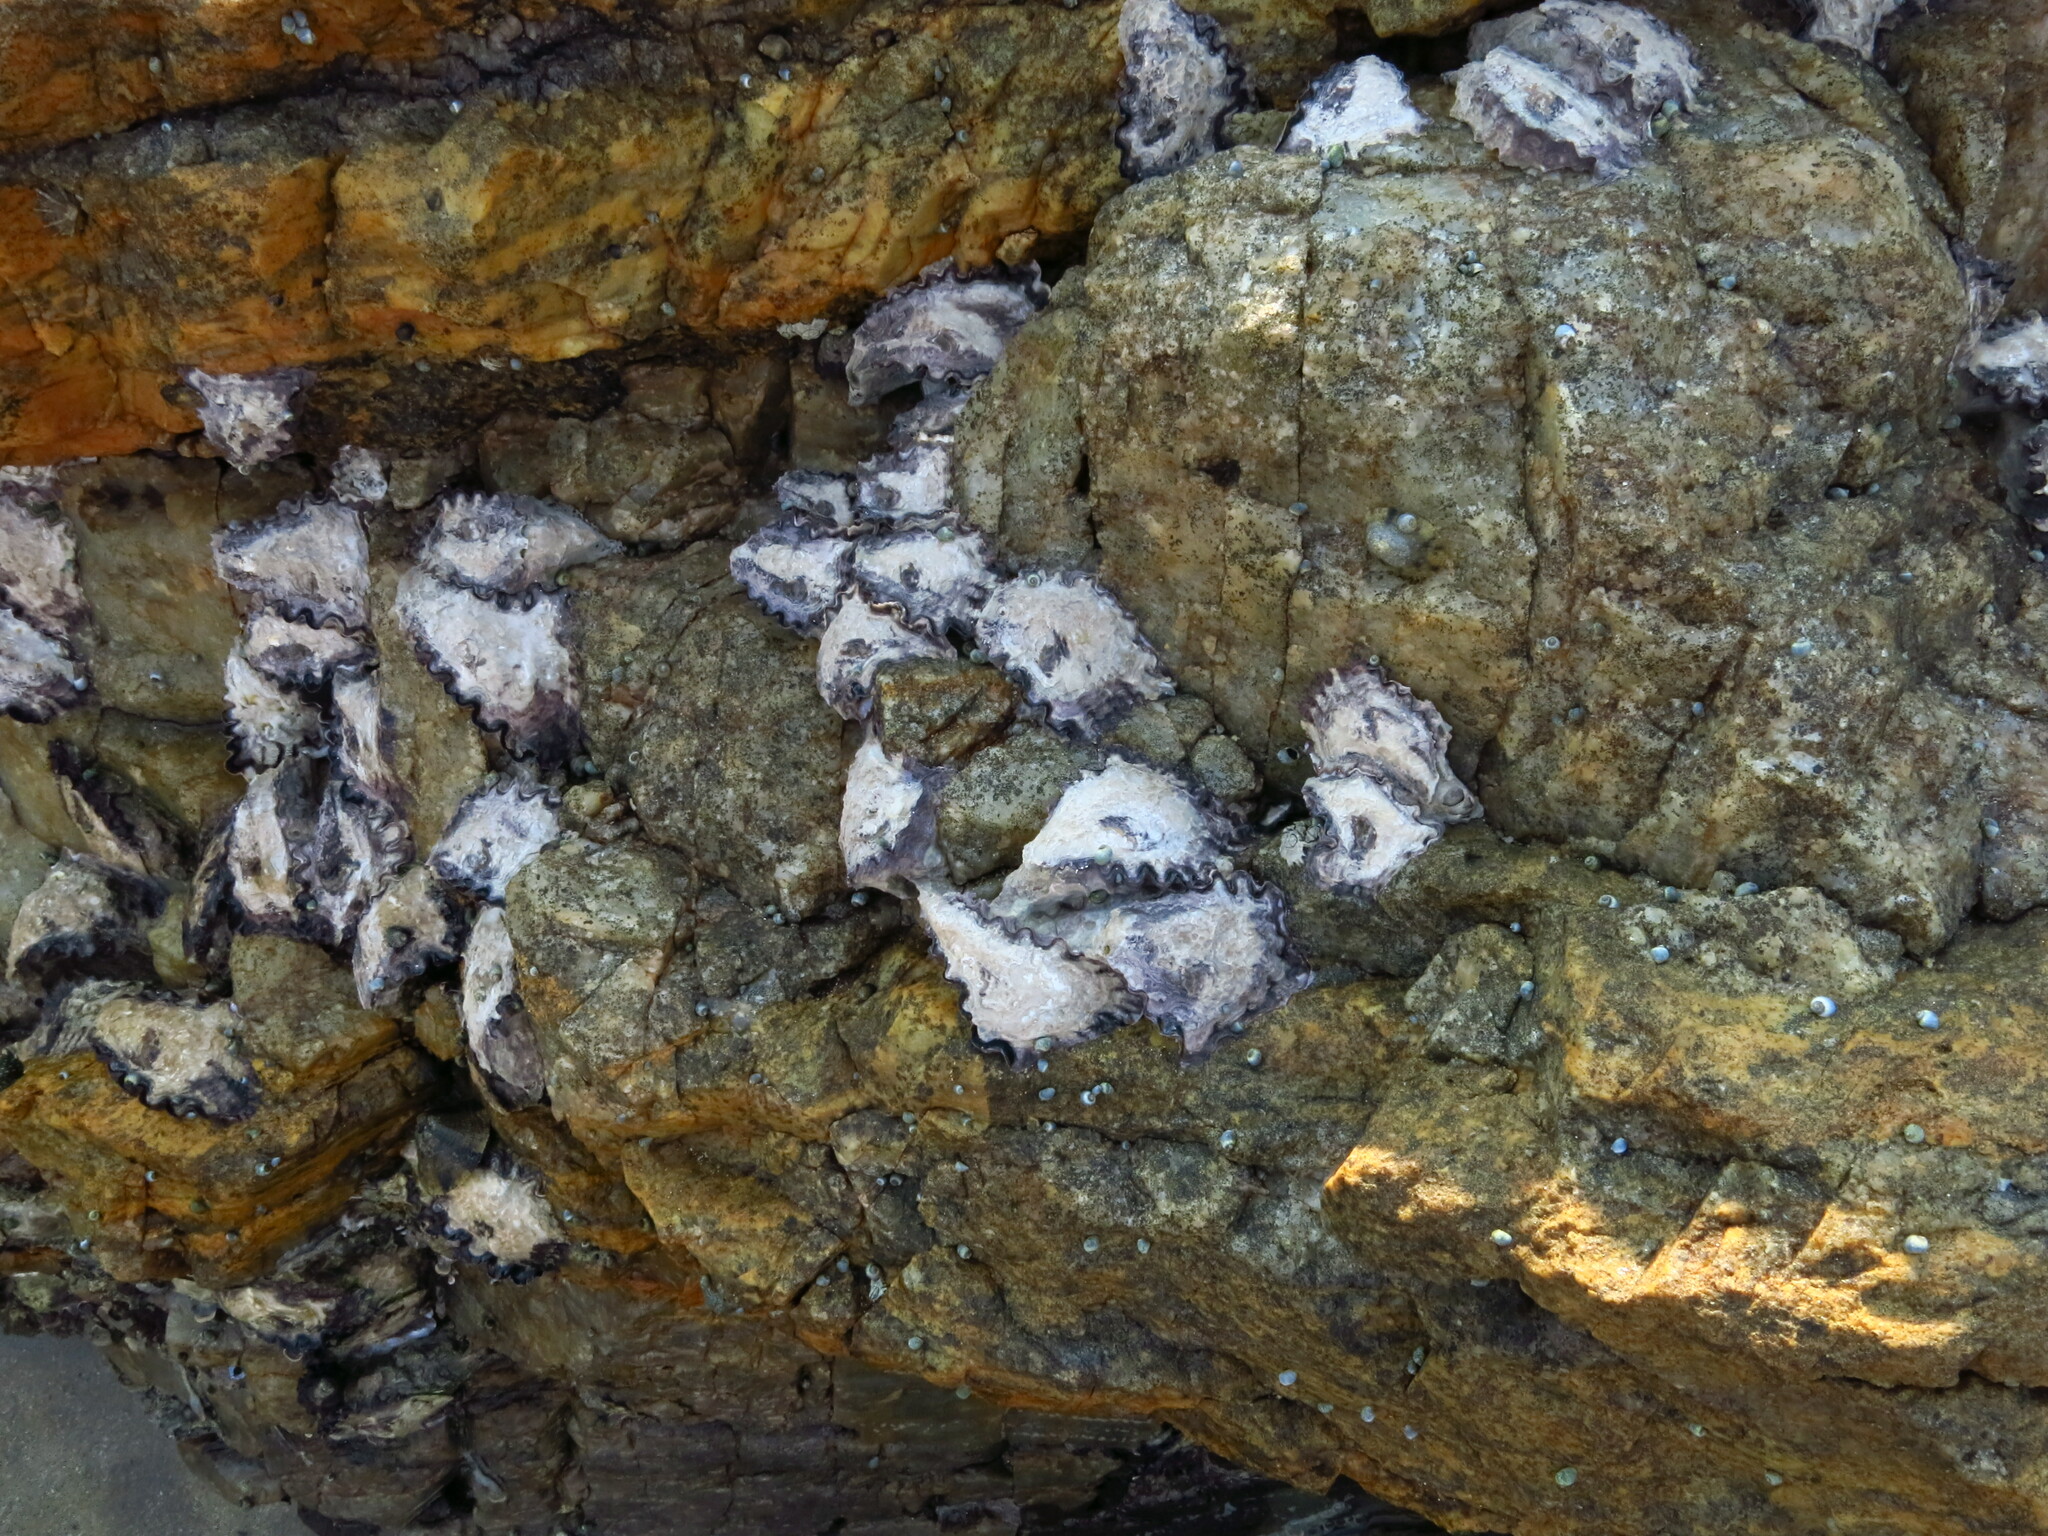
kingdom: Animalia
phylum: Mollusca
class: Bivalvia
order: Ostreida
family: Ostreidae
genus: Saccostrea
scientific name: Saccostrea cuccullata
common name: Natal rock oyster
